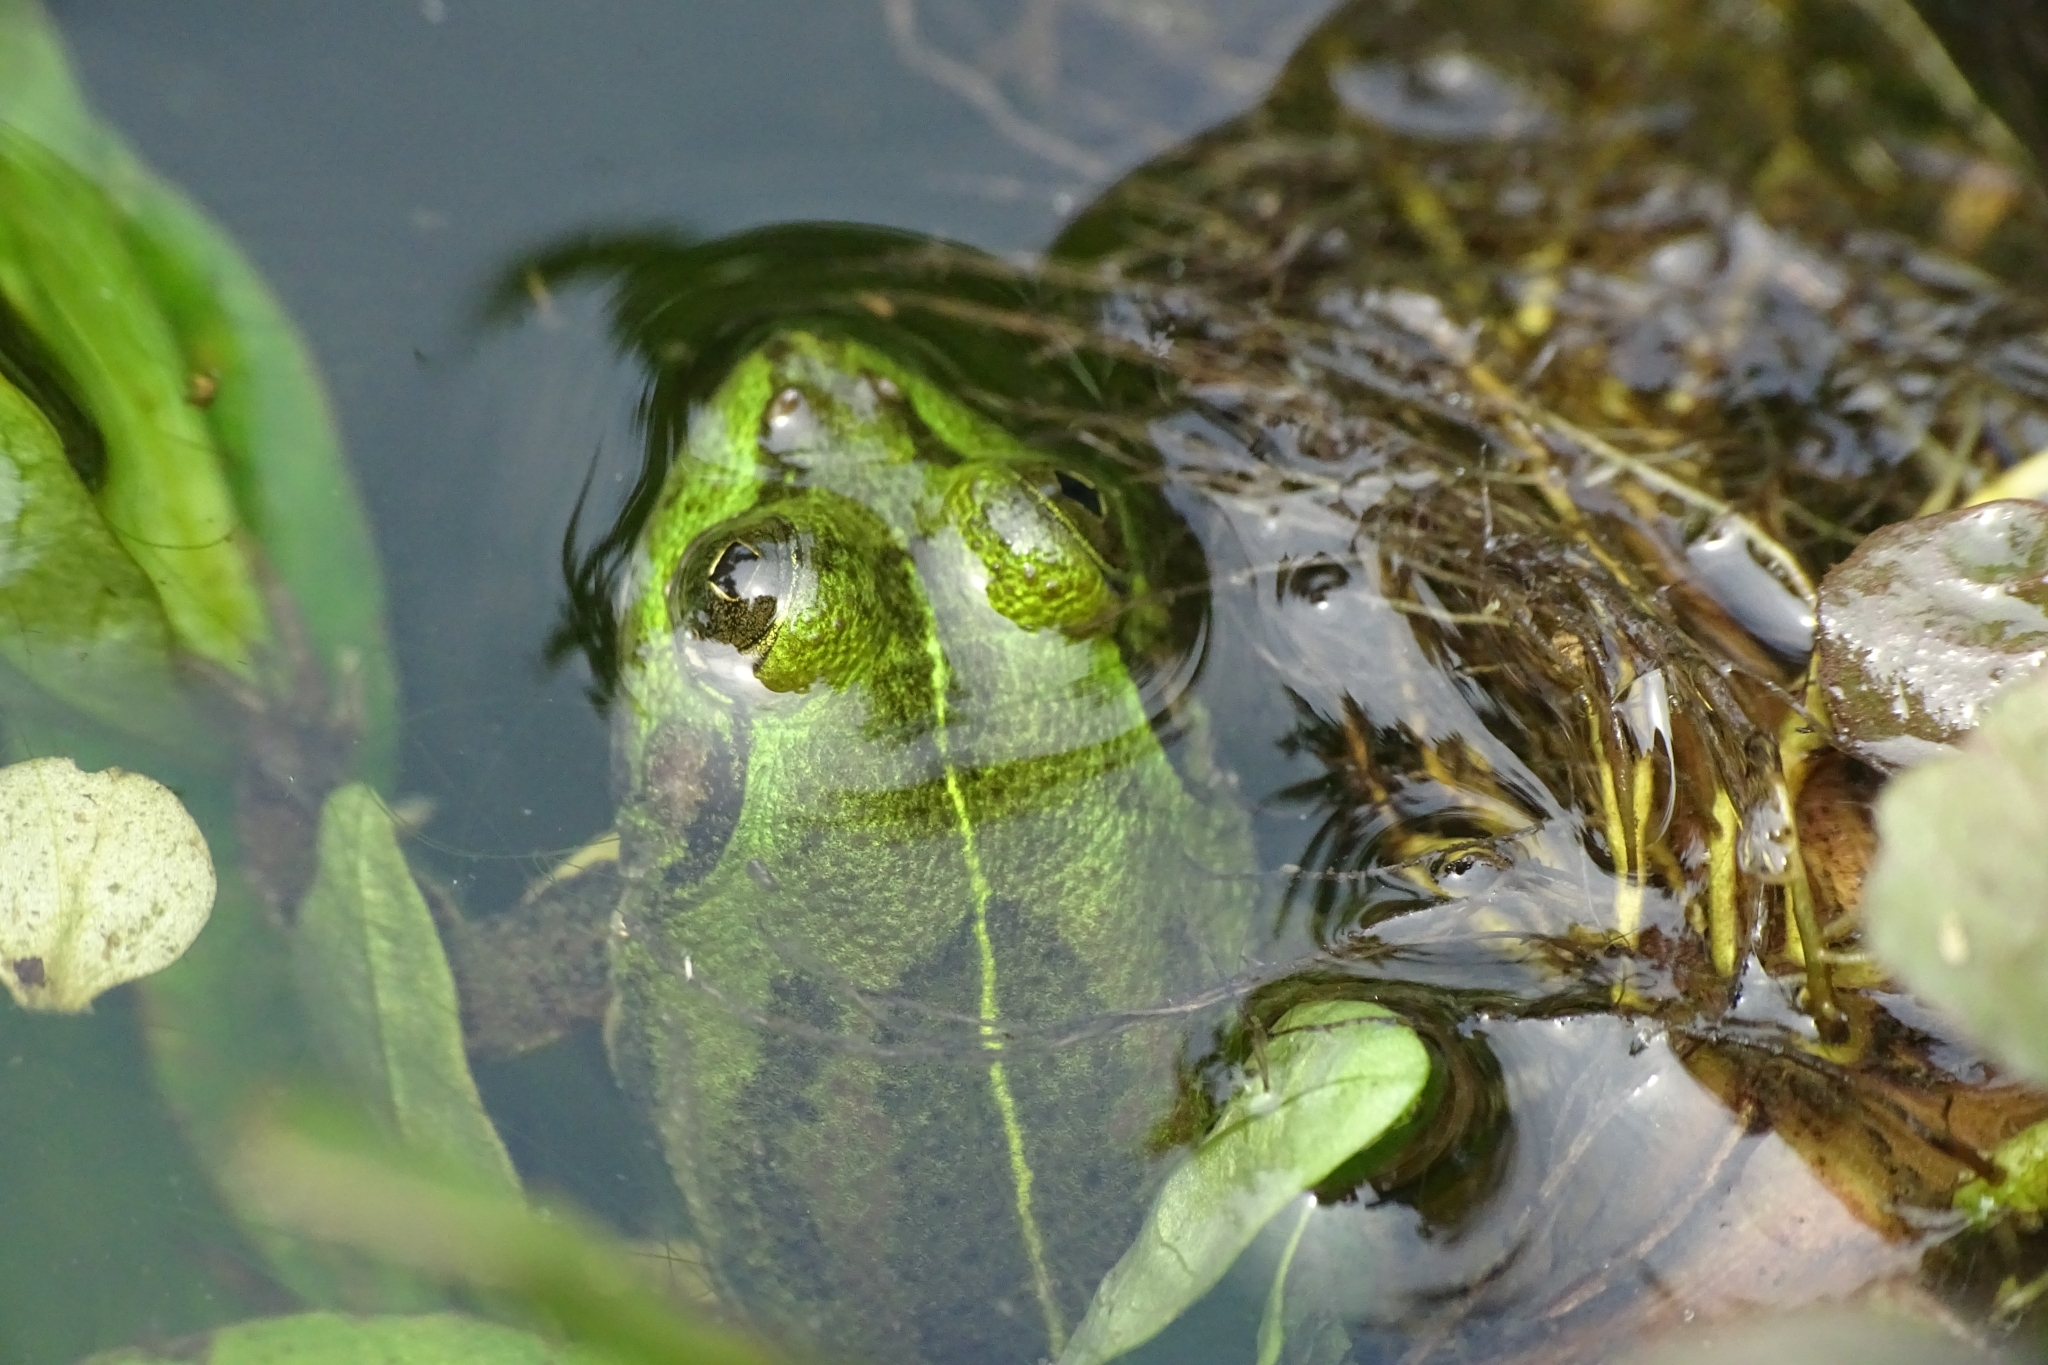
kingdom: Animalia
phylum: Chordata
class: Amphibia
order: Anura
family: Dicroglossidae
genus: Euphlyctis
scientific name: Euphlyctis karaavali
